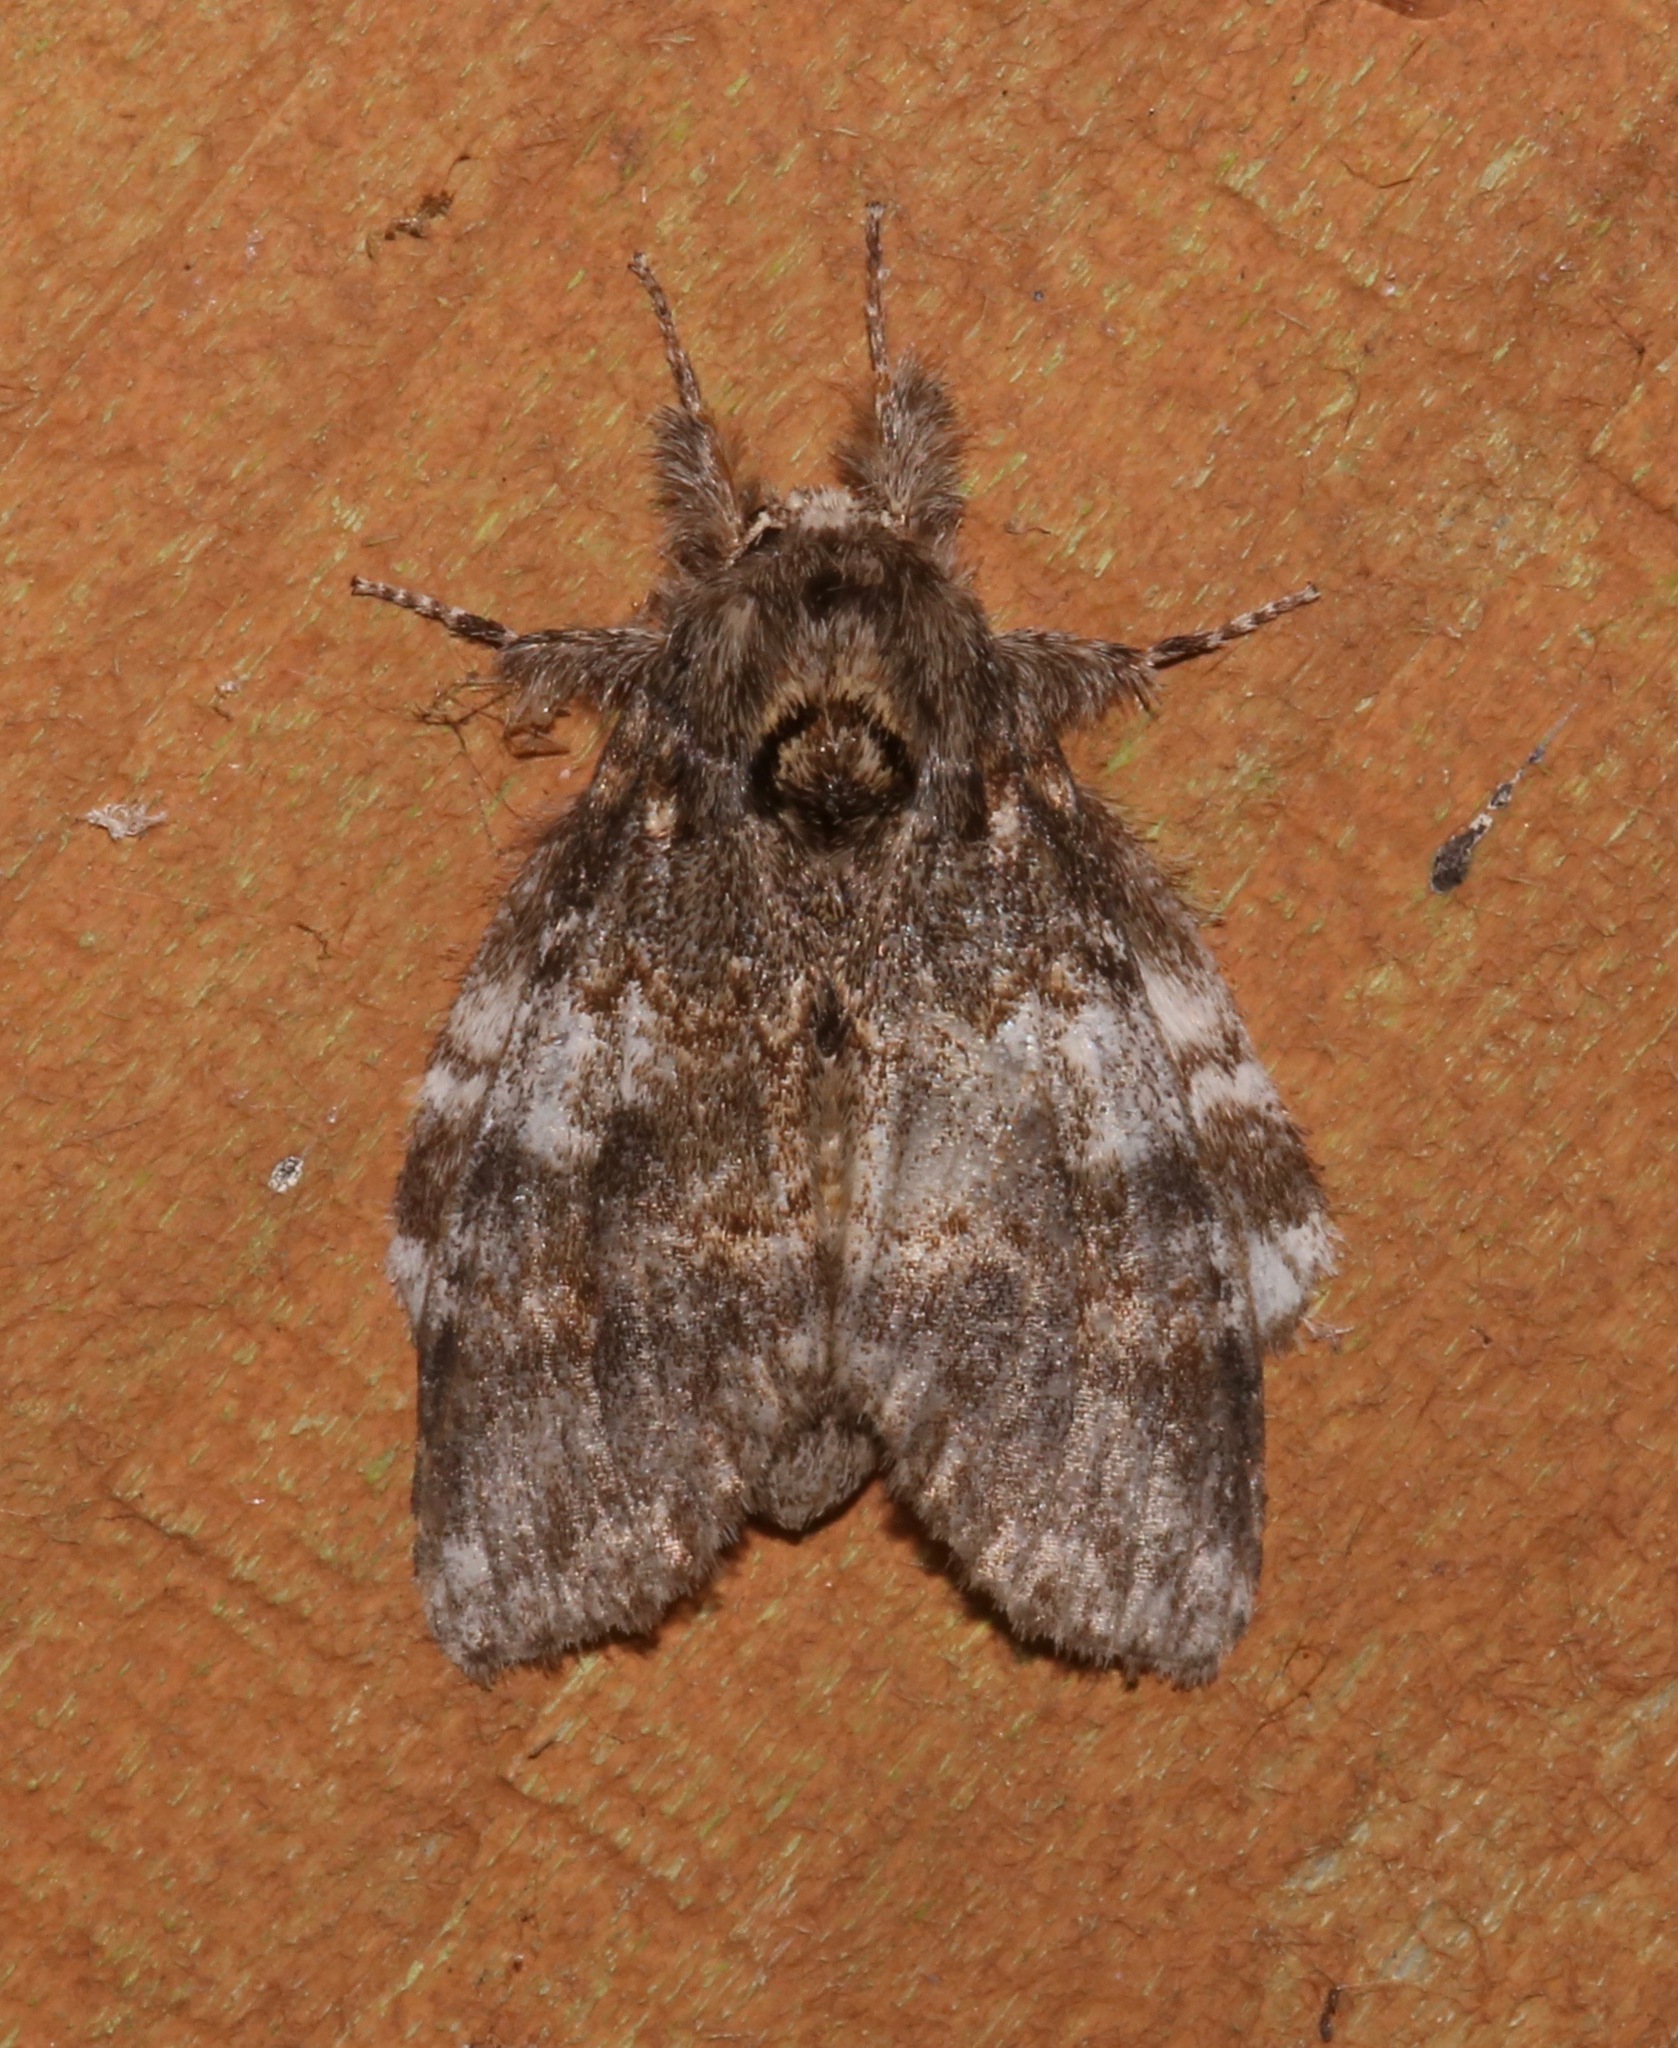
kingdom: Animalia
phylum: Arthropoda
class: Insecta
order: Lepidoptera
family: Notodontidae
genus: Peridea
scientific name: Peridea angulosa
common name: Angulose prominent
